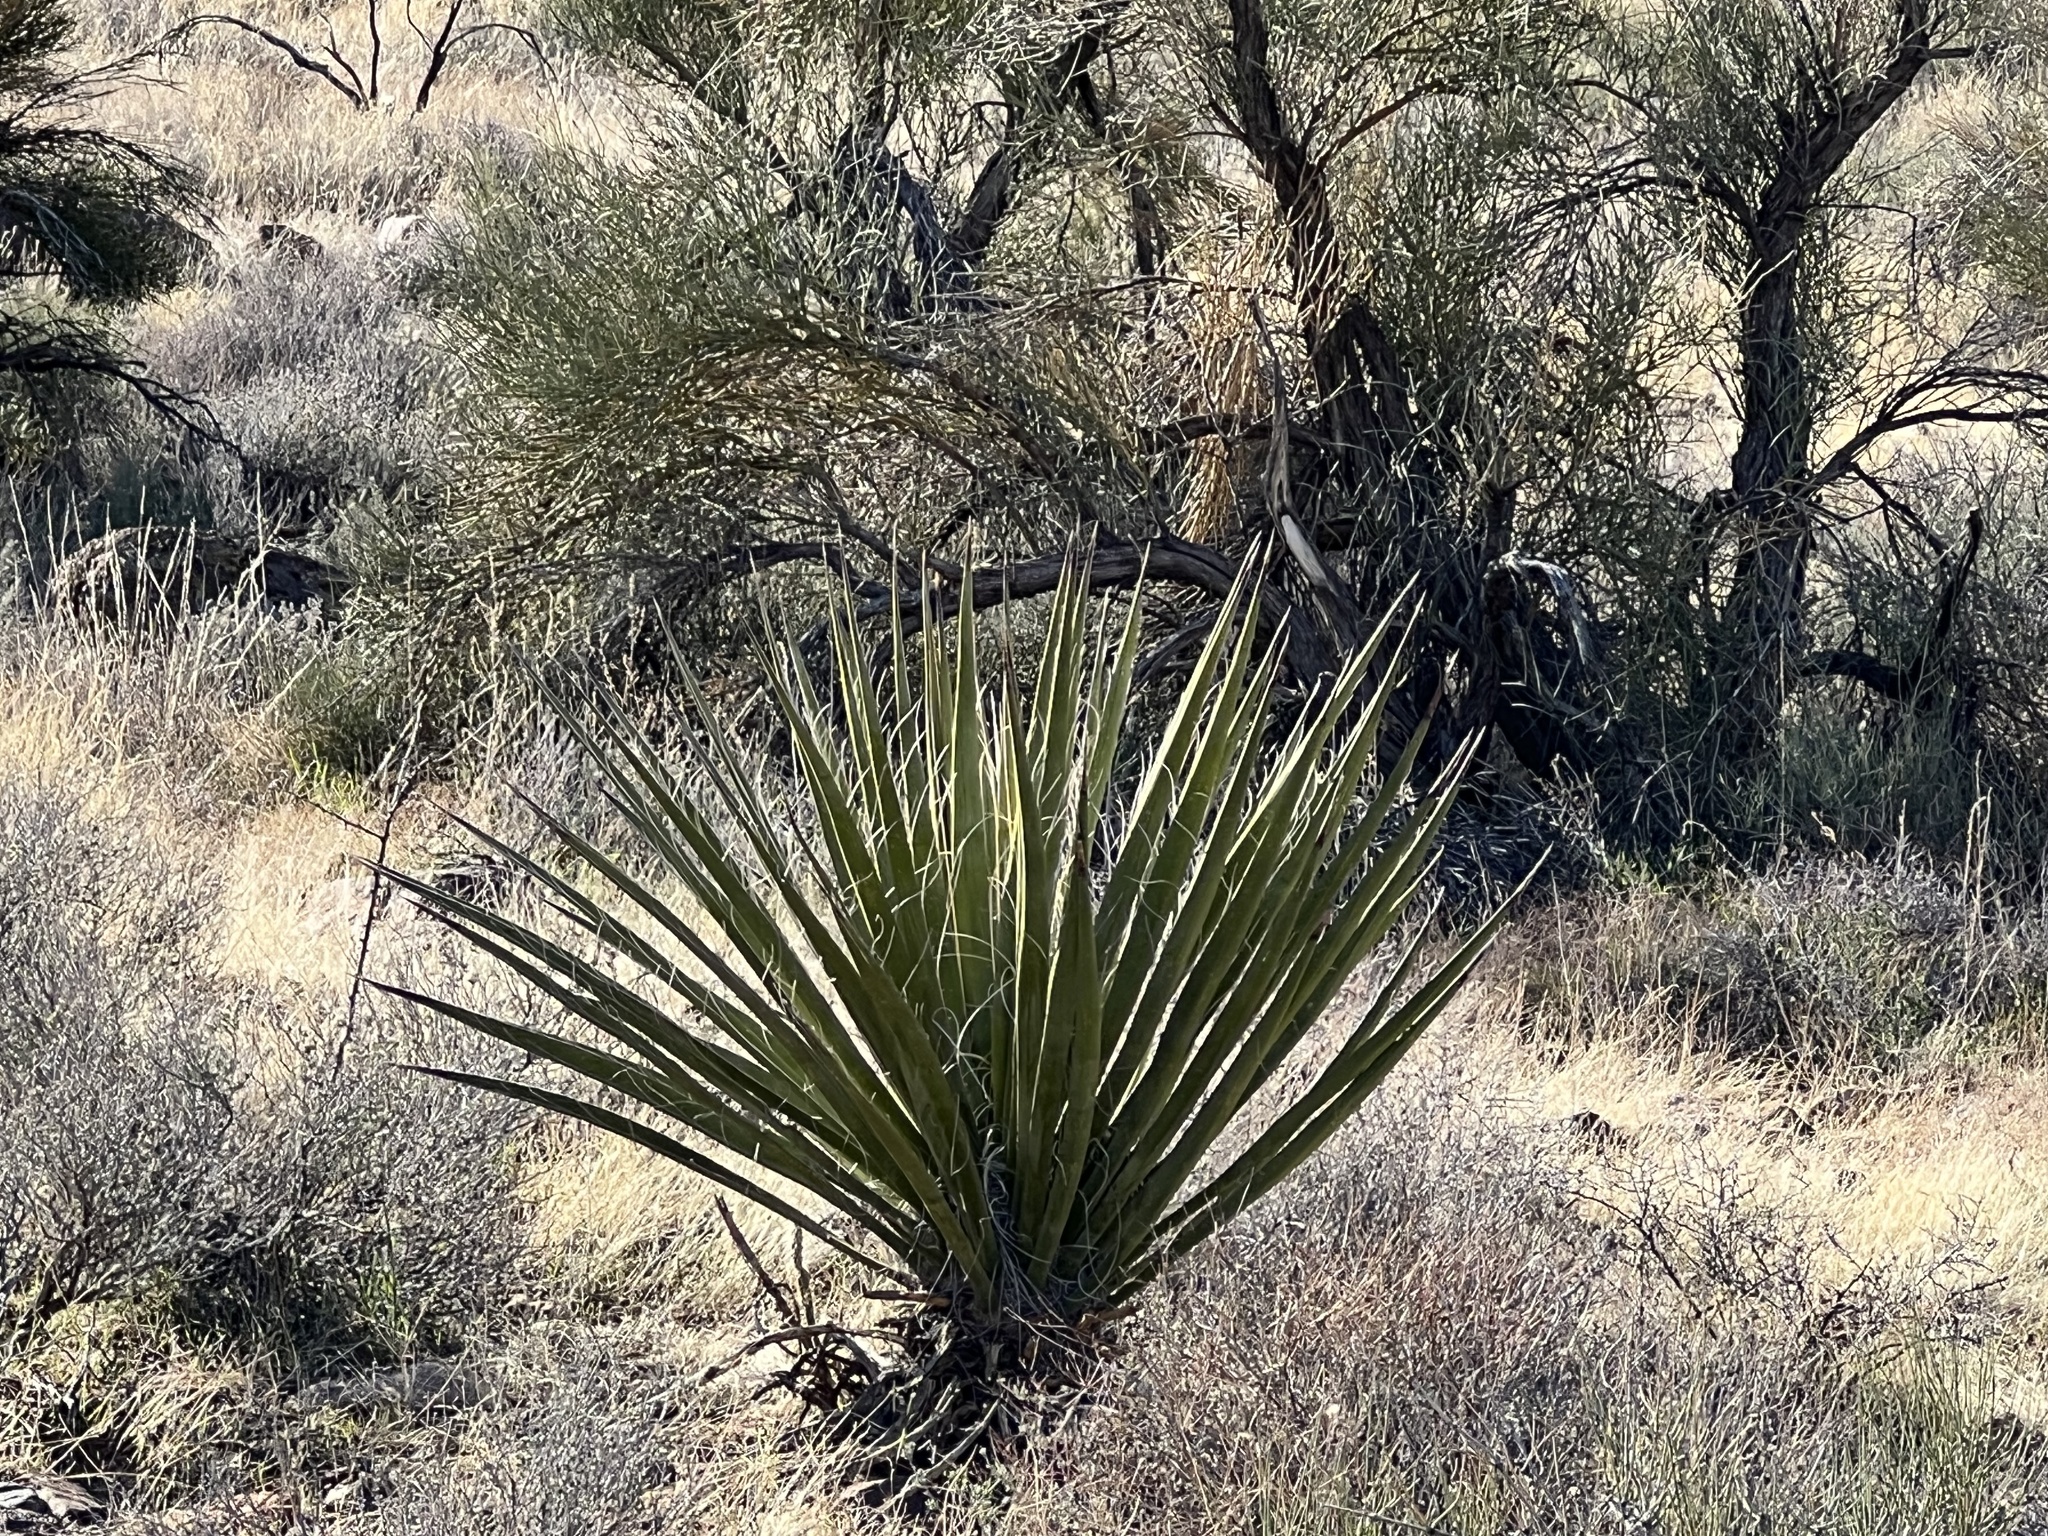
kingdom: Plantae
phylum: Tracheophyta
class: Liliopsida
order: Asparagales
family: Asparagaceae
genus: Yucca
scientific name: Yucca schidigera
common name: Mojave yucca
